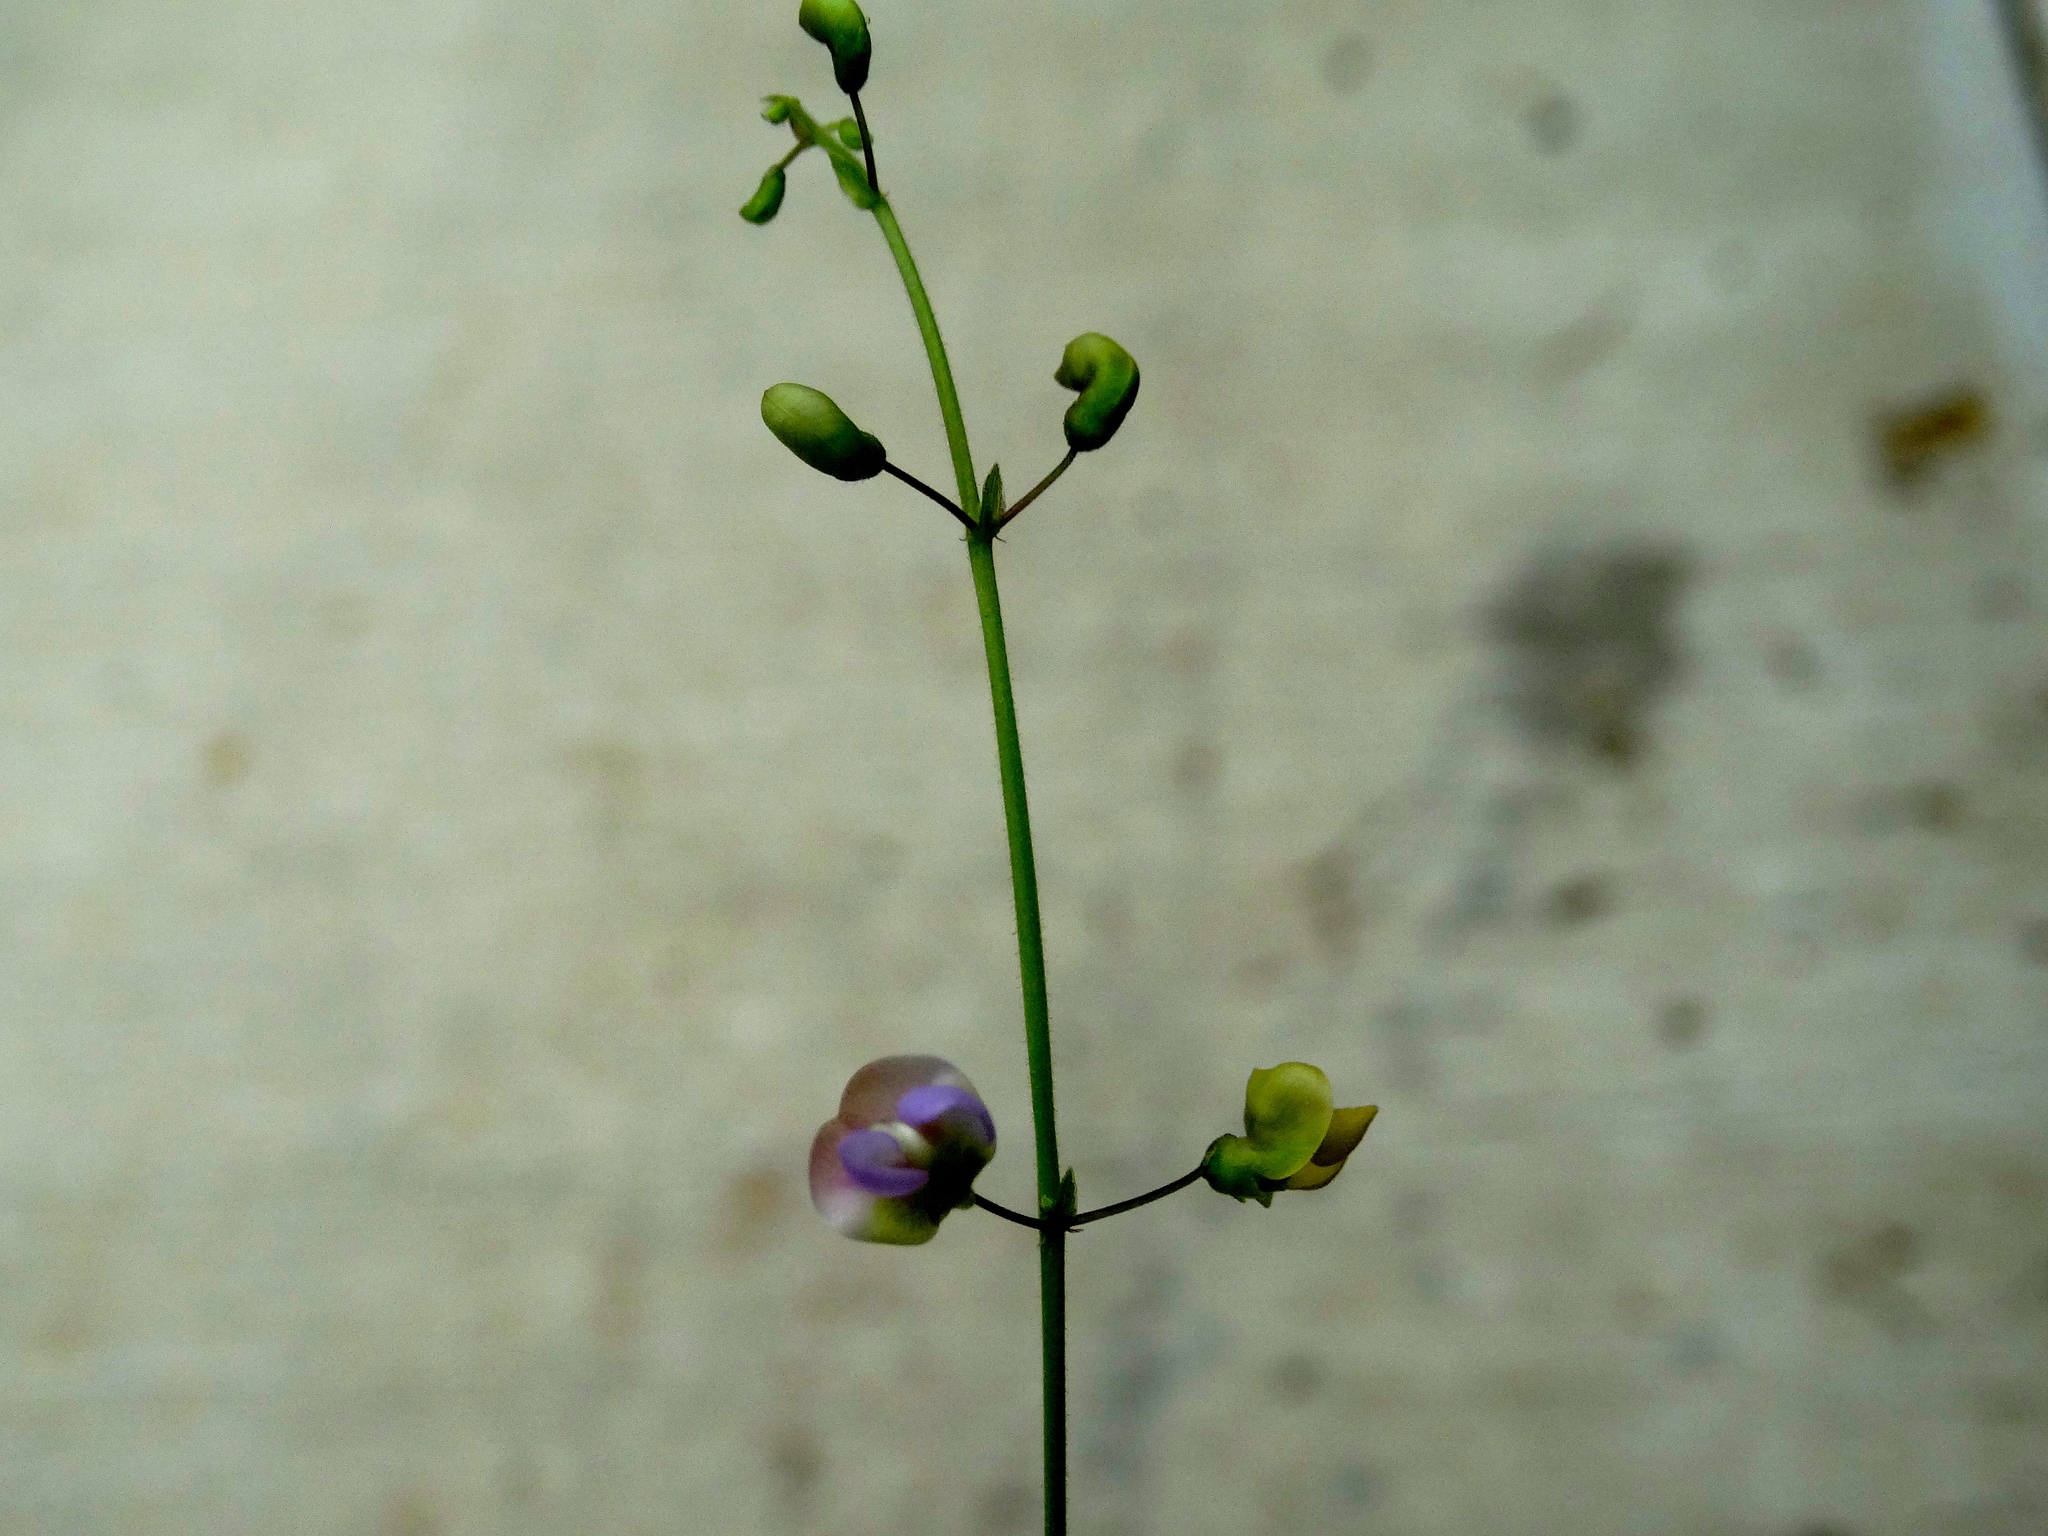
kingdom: Plantae
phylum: Tracheophyta
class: Magnoliopsida
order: Fabales
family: Fabaceae
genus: Faboidea
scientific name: Faboidea
